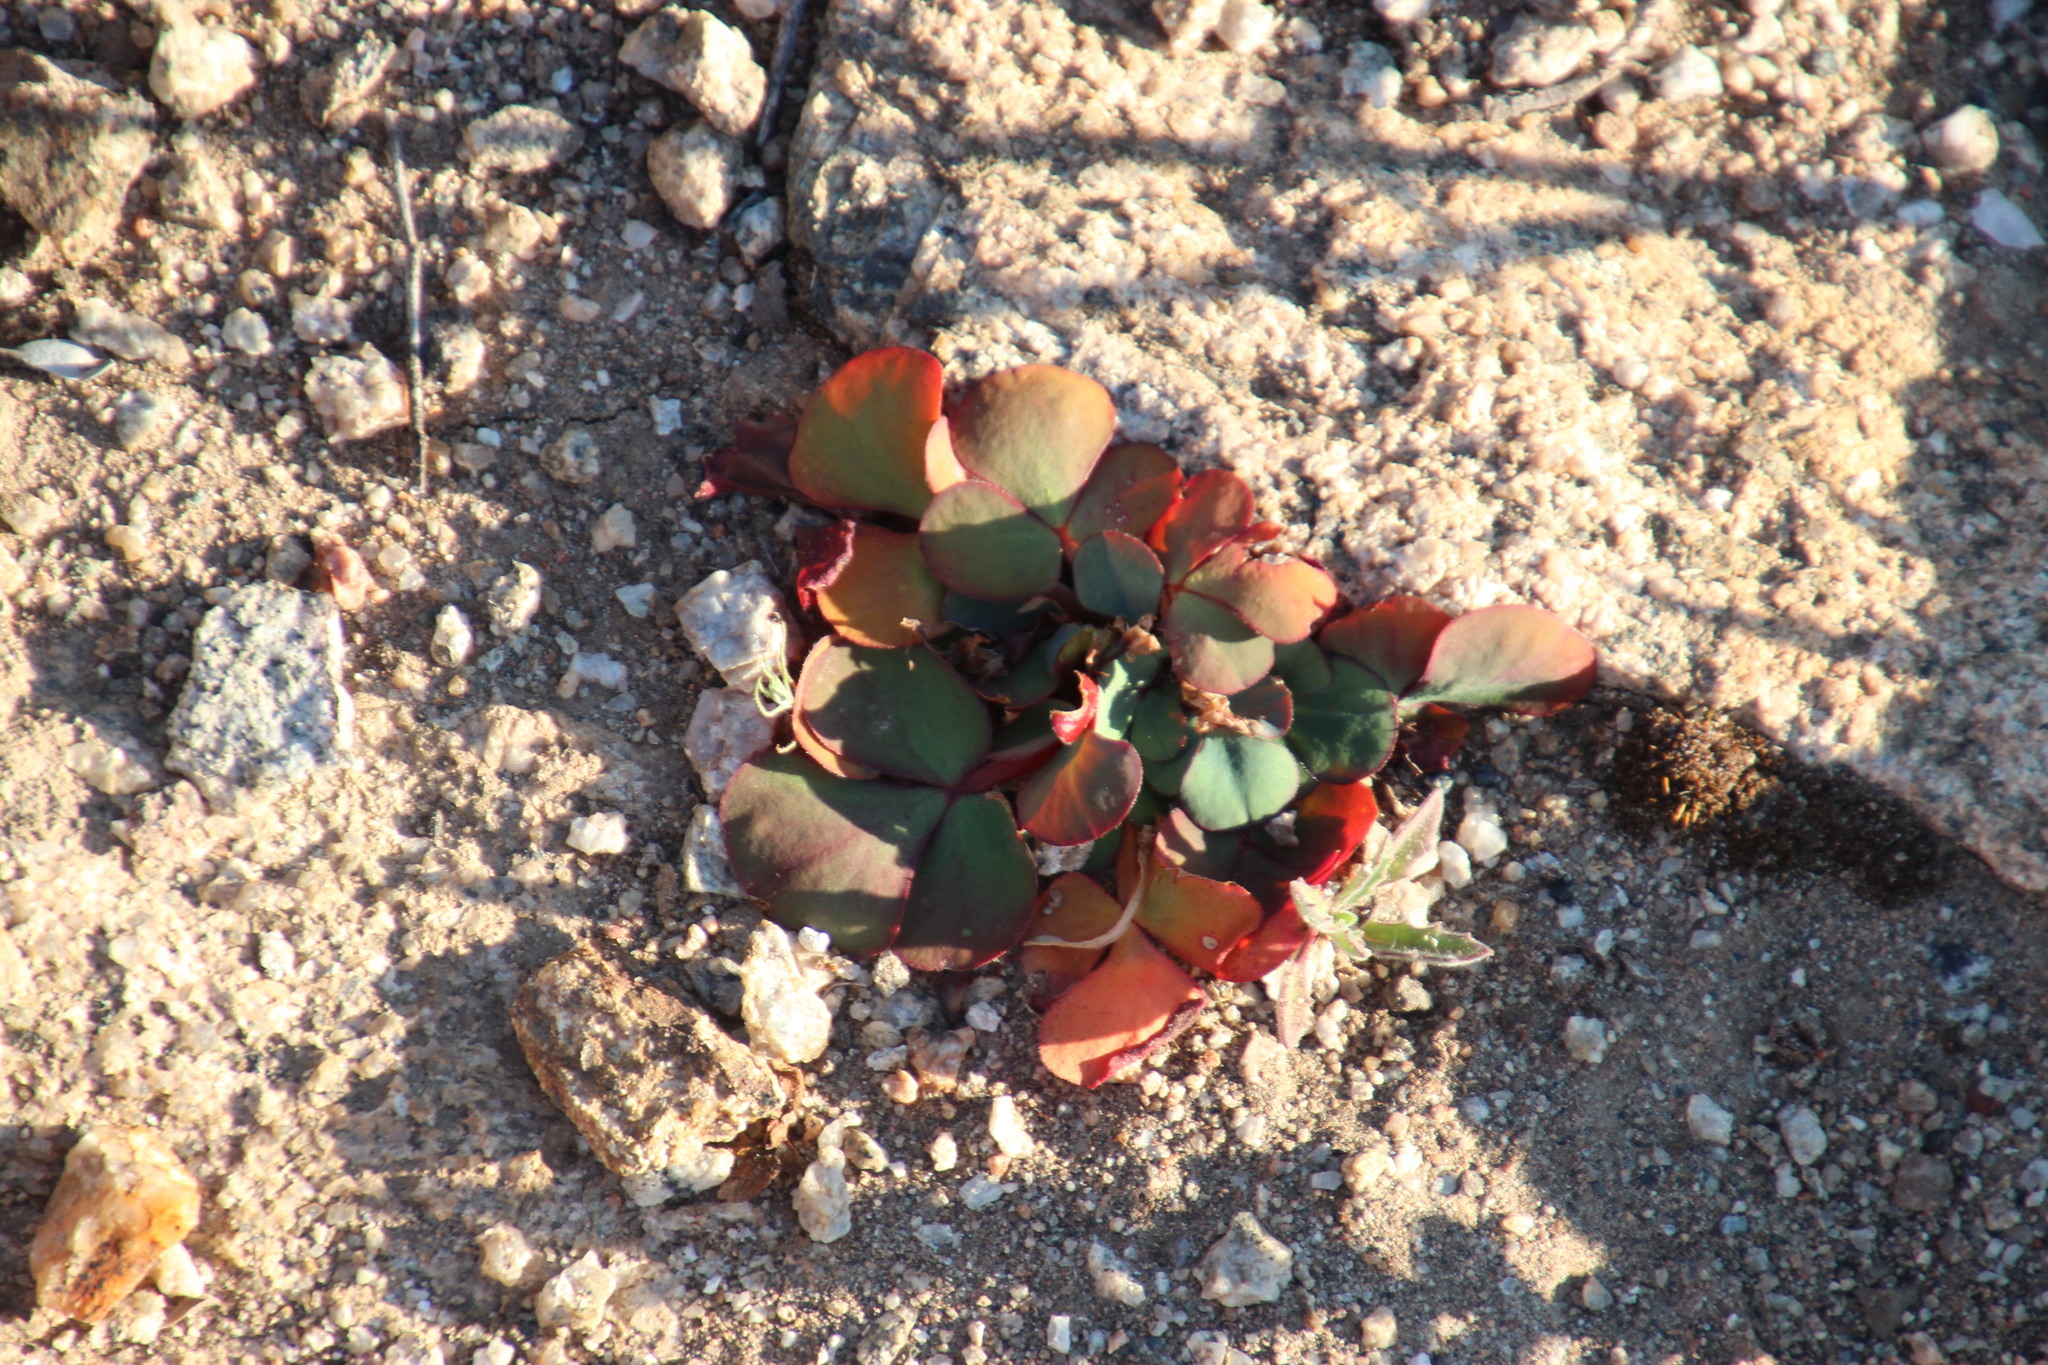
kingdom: Plantae
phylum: Tracheophyta
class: Magnoliopsida
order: Oxalidales
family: Oxalidaceae
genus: Oxalis
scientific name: Oxalis purpurea
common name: Purple woodsorrel
